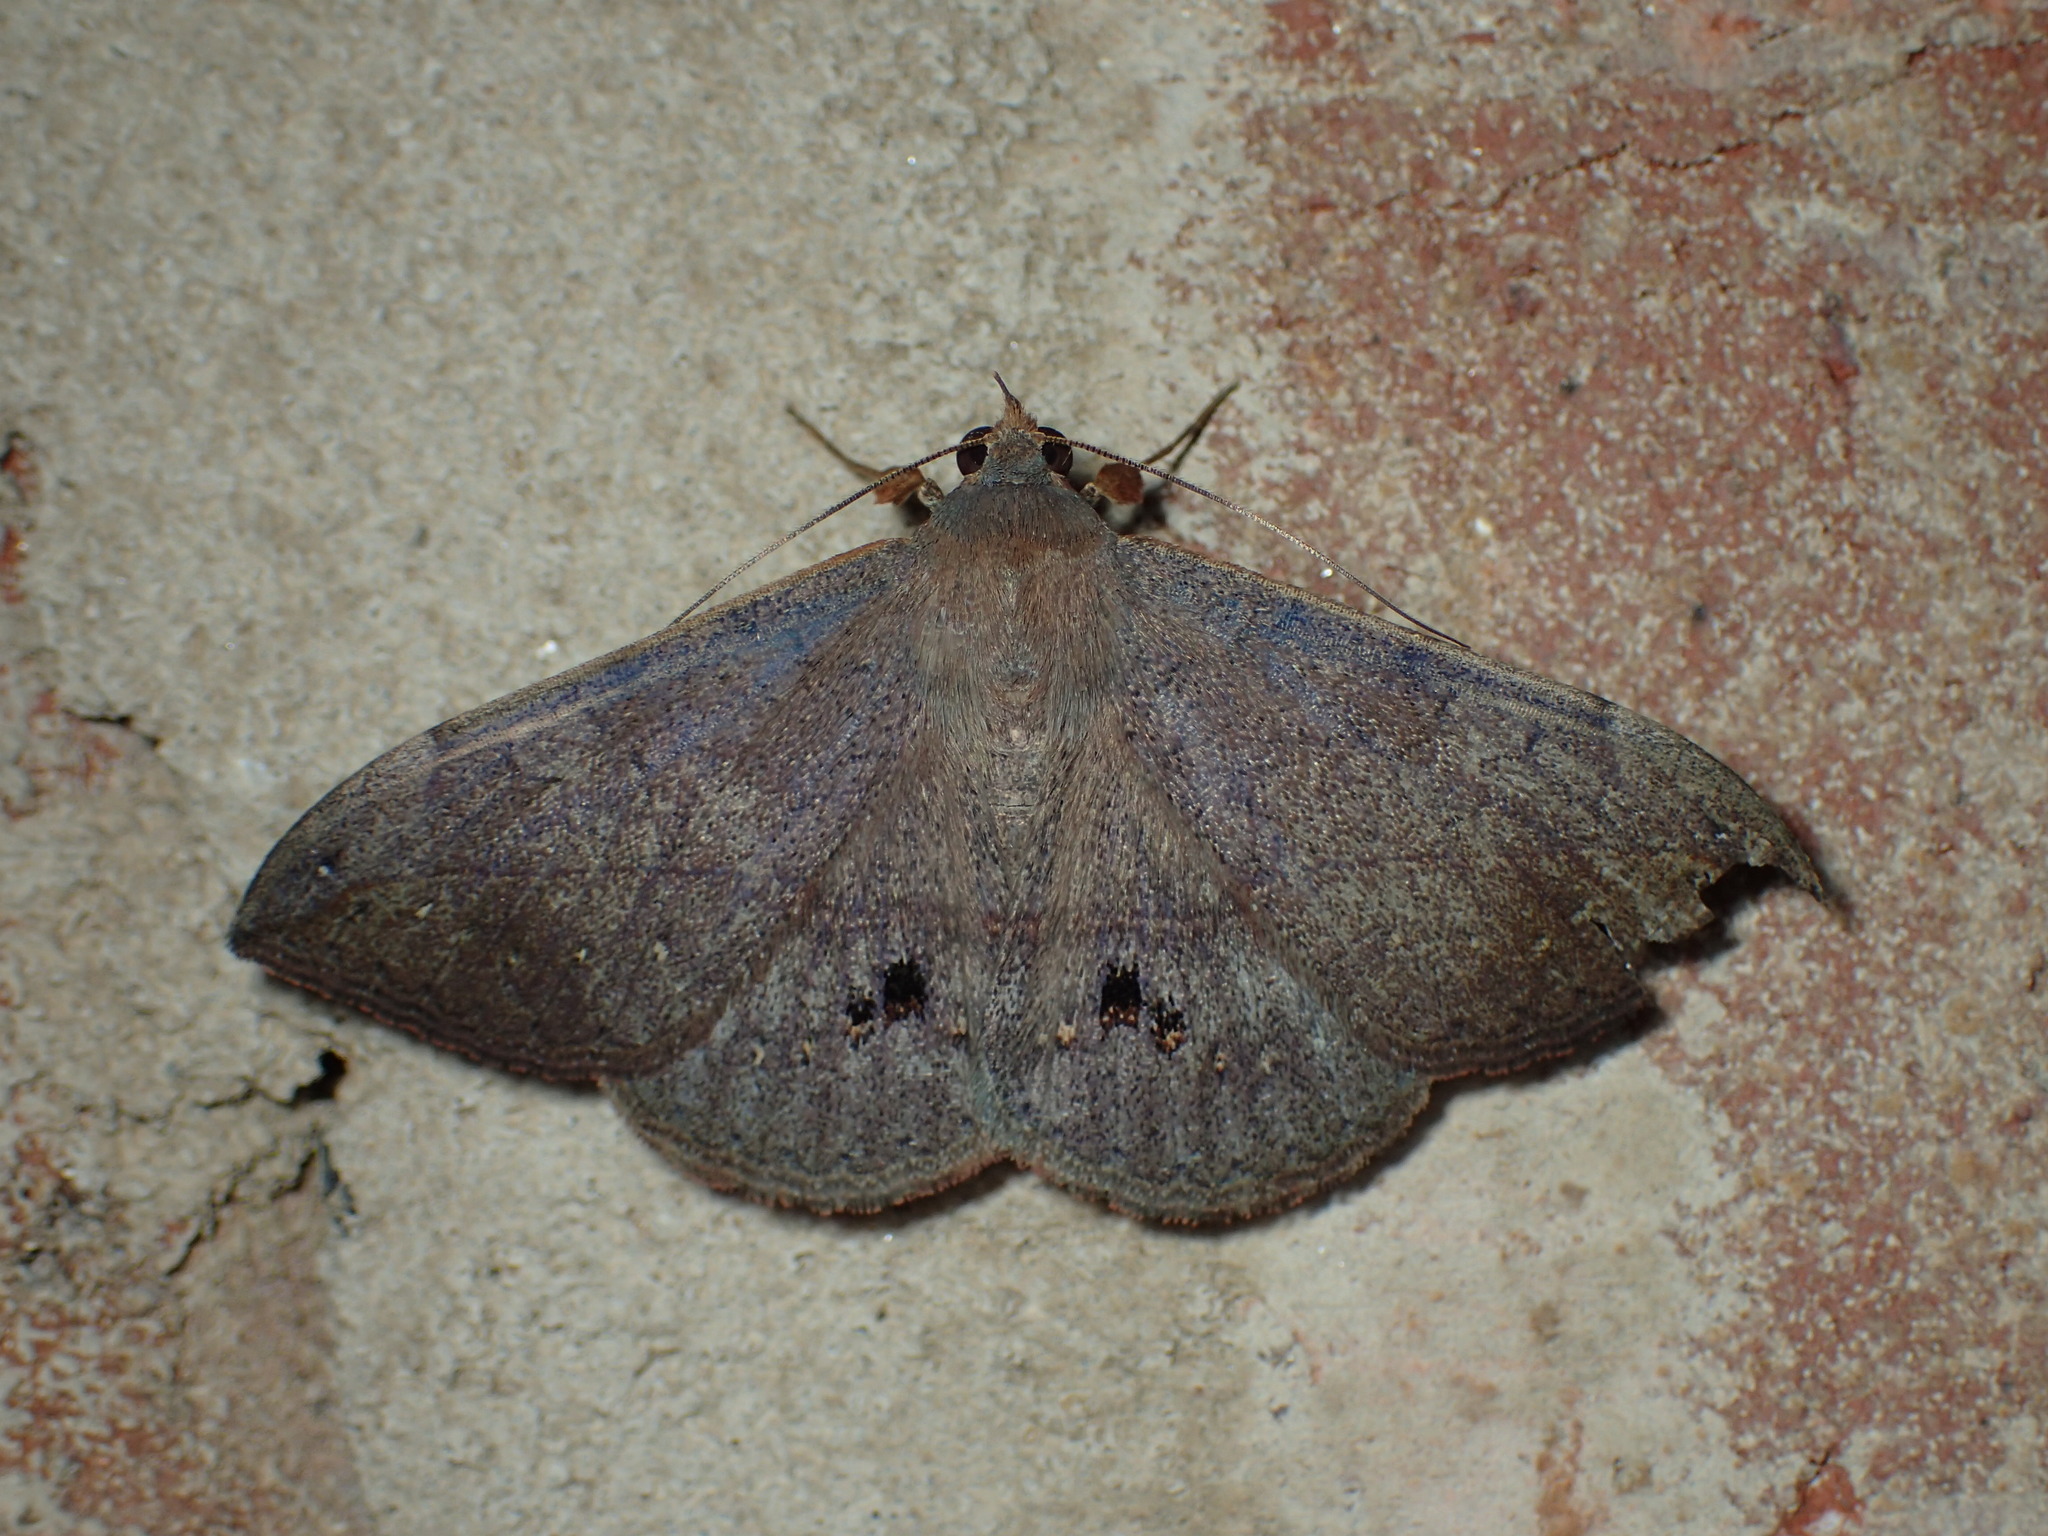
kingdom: Animalia
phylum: Arthropoda
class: Insecta
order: Lepidoptera
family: Erebidae
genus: Anticarsia
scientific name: Anticarsia gemmatalis
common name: Cutworm moth
